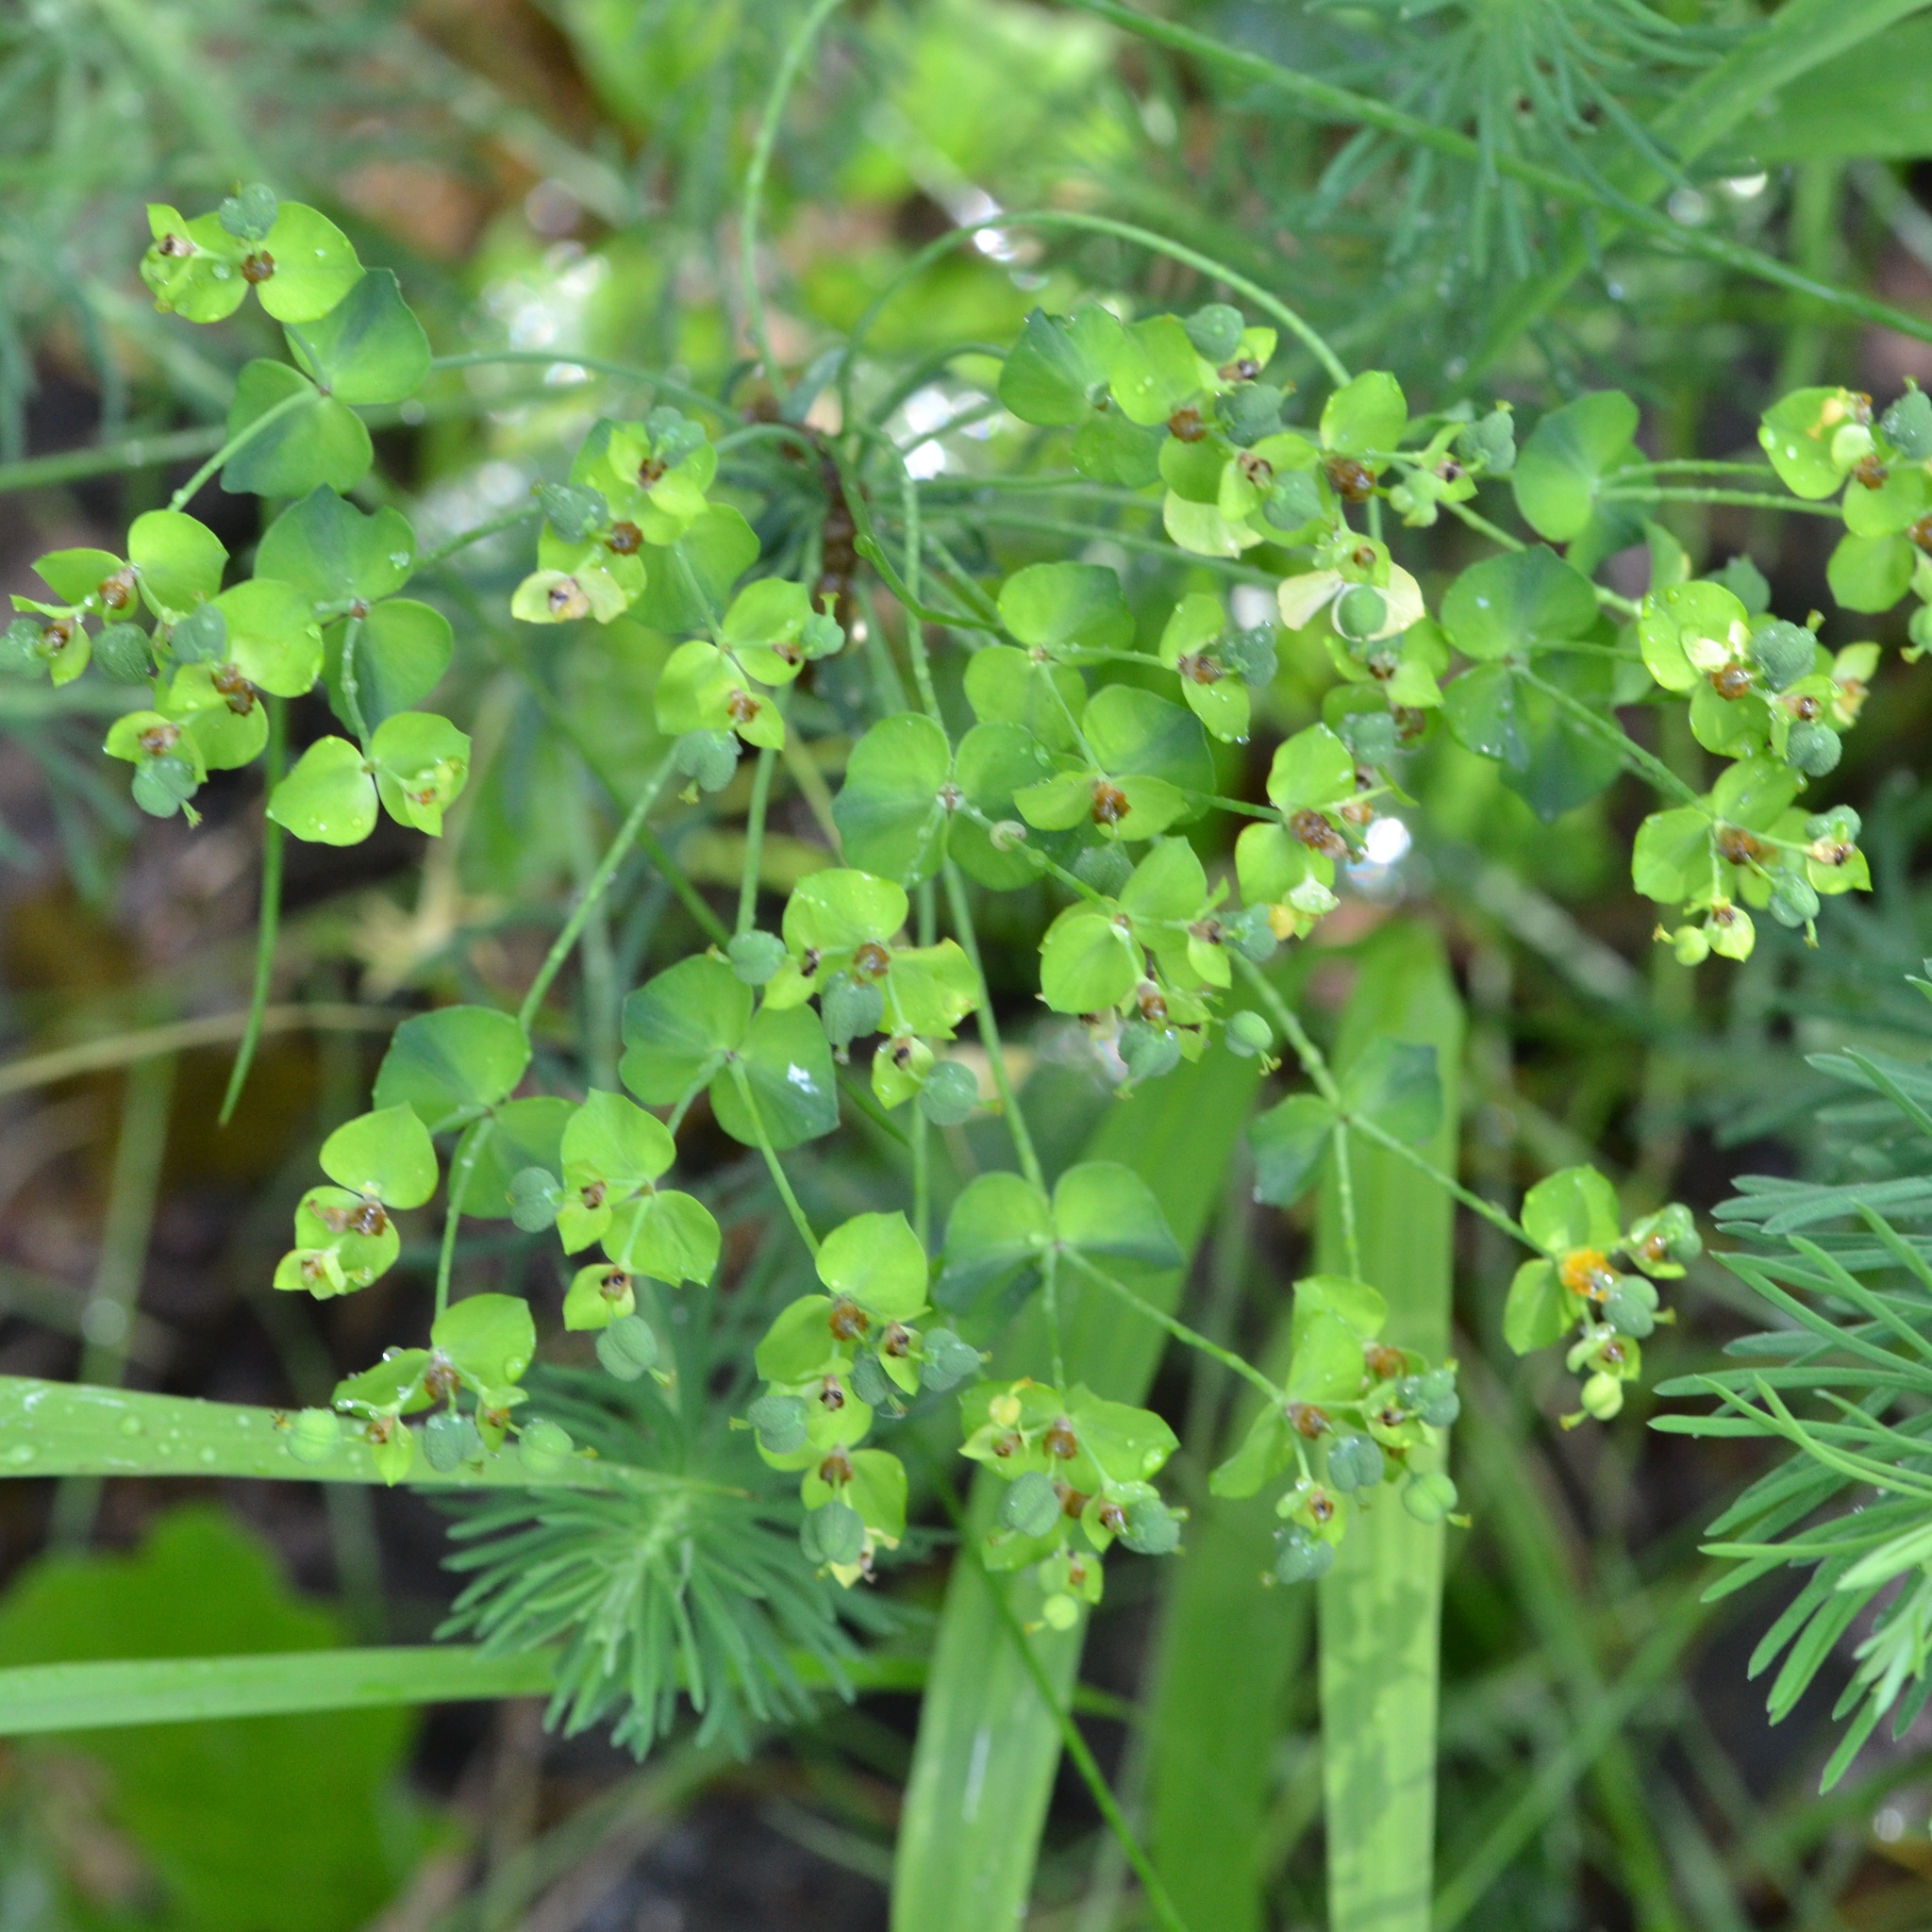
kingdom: Plantae
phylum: Tracheophyta
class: Magnoliopsida
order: Malpighiales
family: Euphorbiaceae
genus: Euphorbia
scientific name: Euphorbia cyparissias
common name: Cypress spurge
